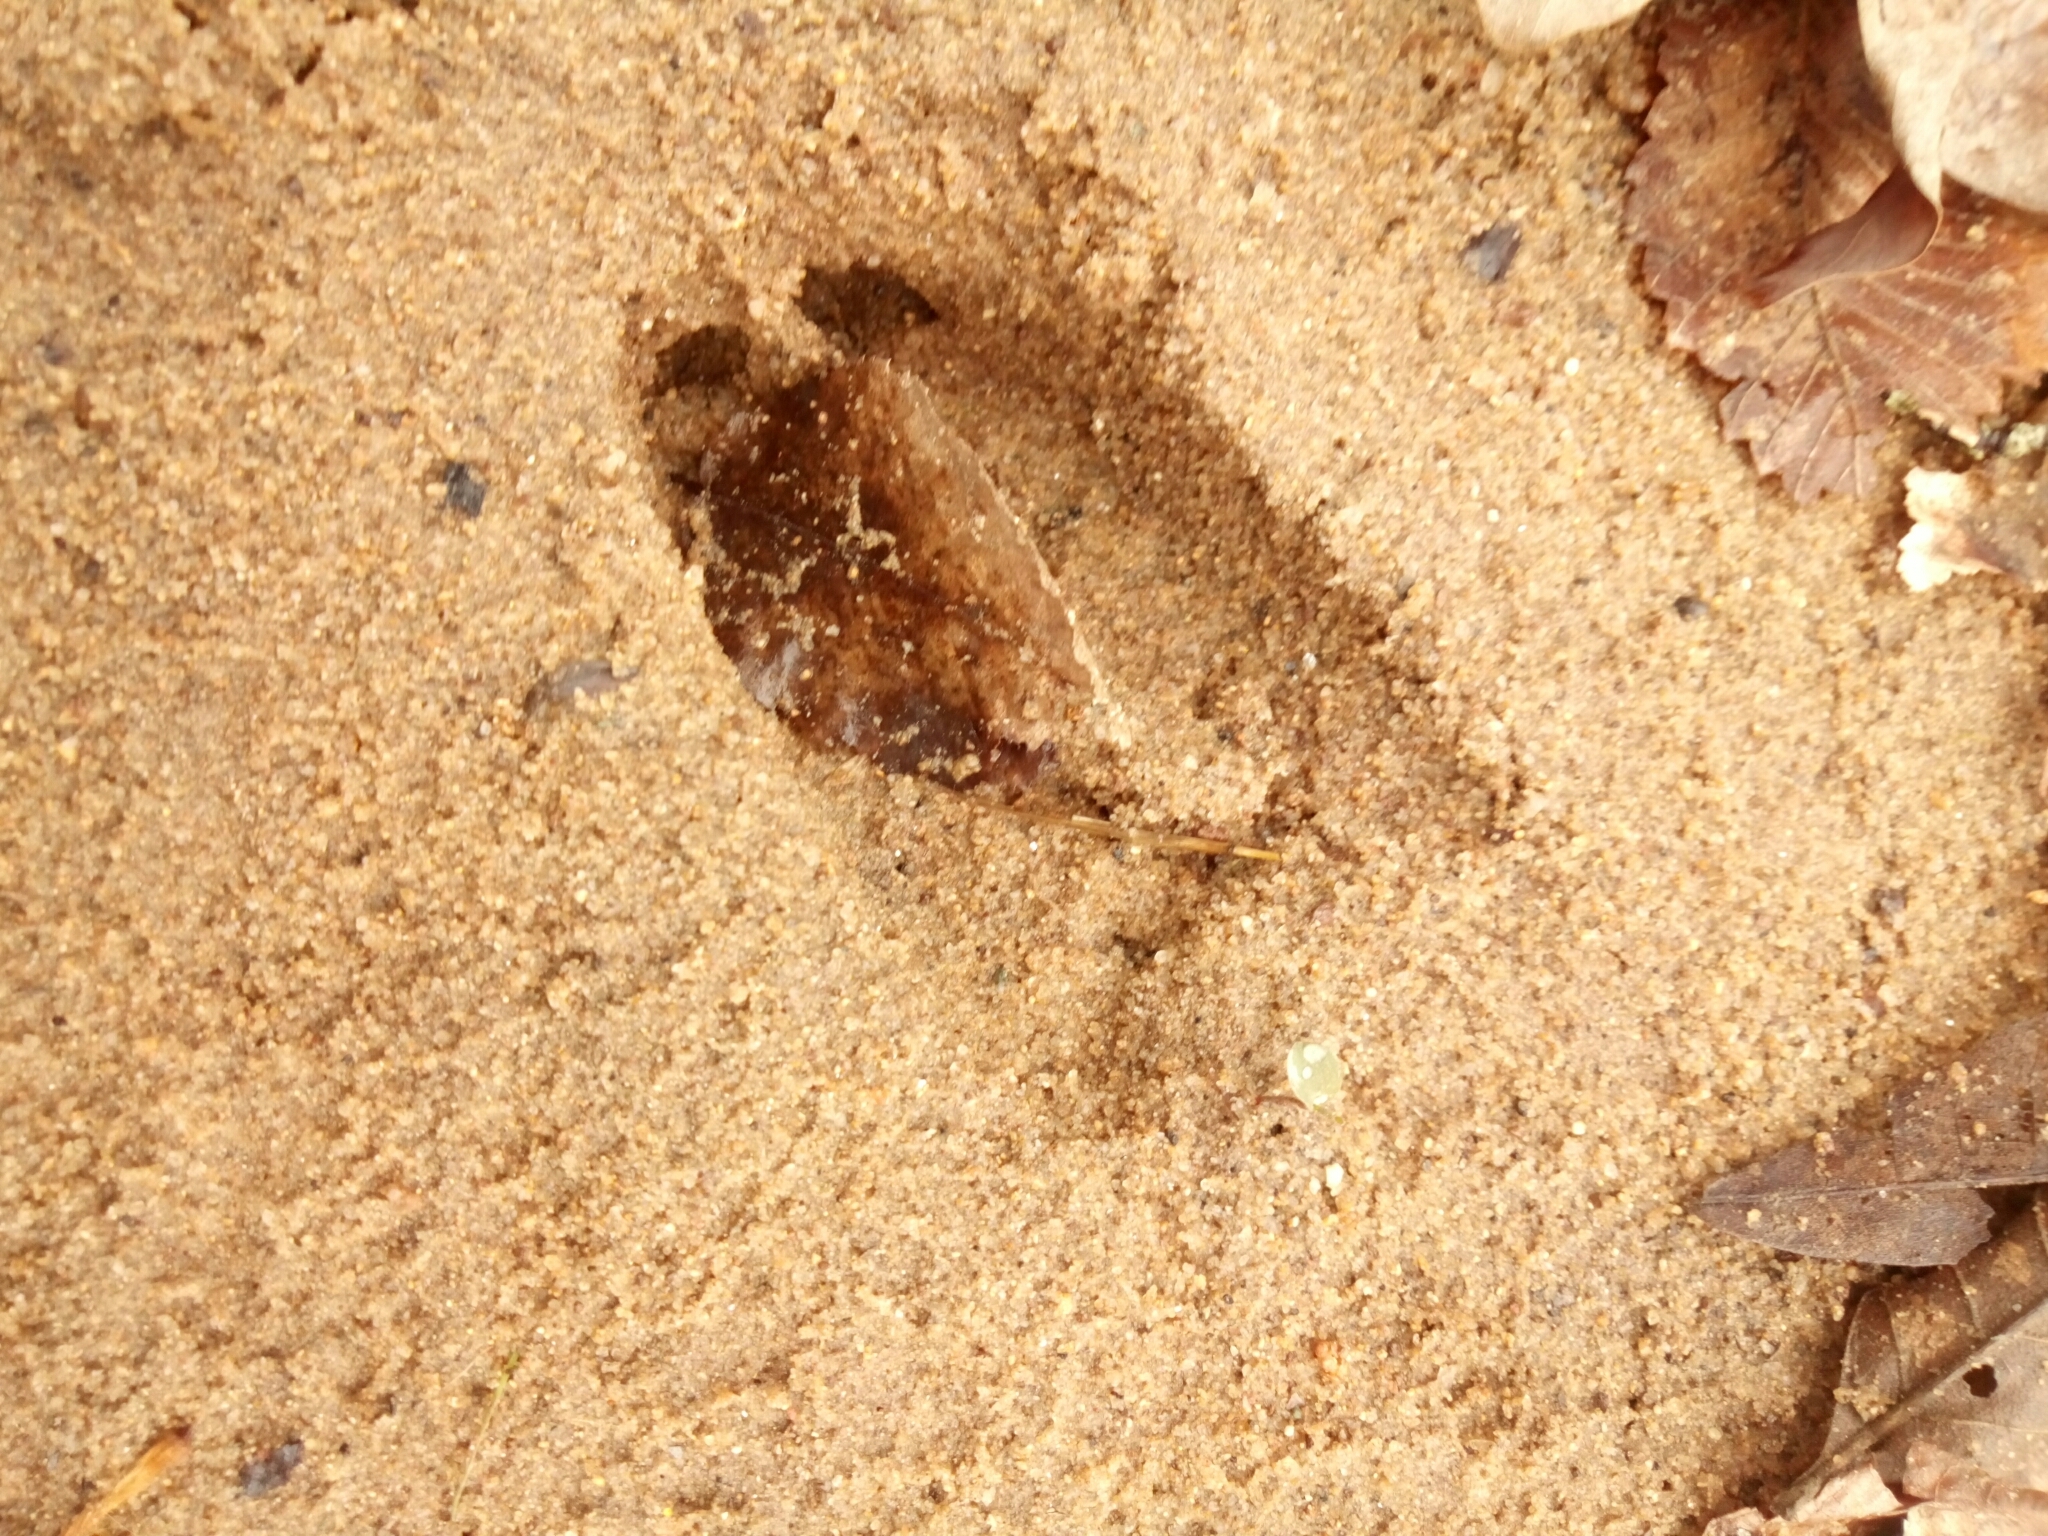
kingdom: Animalia
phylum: Chordata
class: Mammalia
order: Artiodactyla
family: Cervidae
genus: Odocoileus
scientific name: Odocoileus virginianus
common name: White-tailed deer
